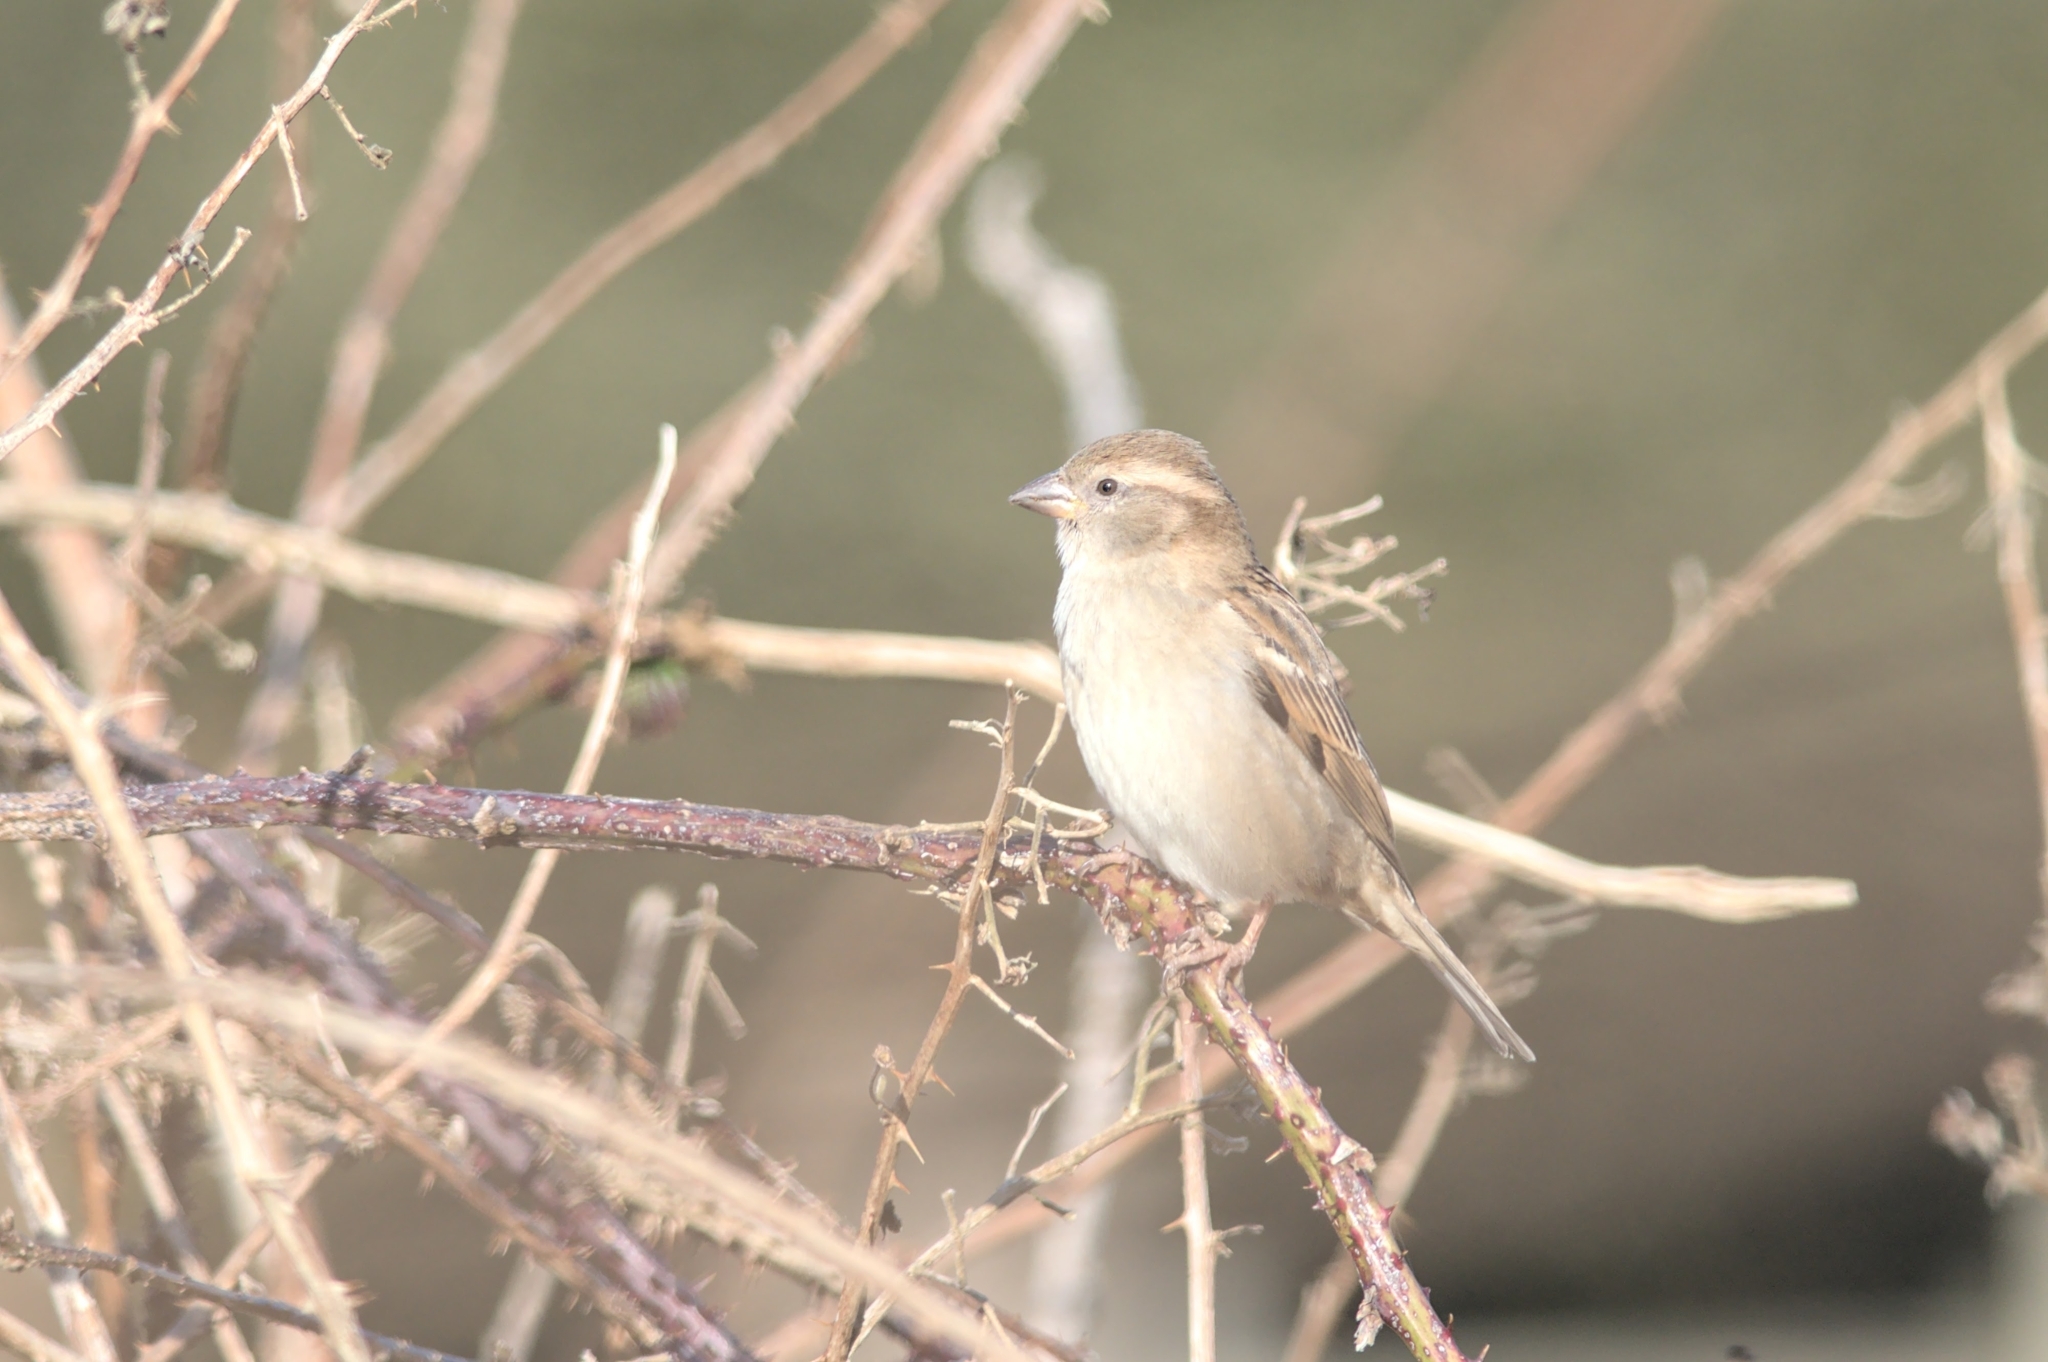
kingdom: Animalia
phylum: Chordata
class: Aves
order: Passeriformes
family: Passeridae
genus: Passer
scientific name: Passer domesticus
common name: House sparrow
